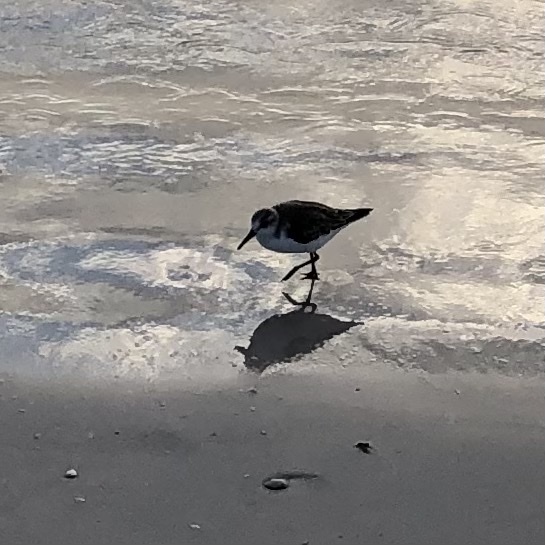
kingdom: Animalia
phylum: Chordata
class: Aves
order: Charadriiformes
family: Scolopacidae
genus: Calidris
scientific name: Calidris alba
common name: Sanderling
